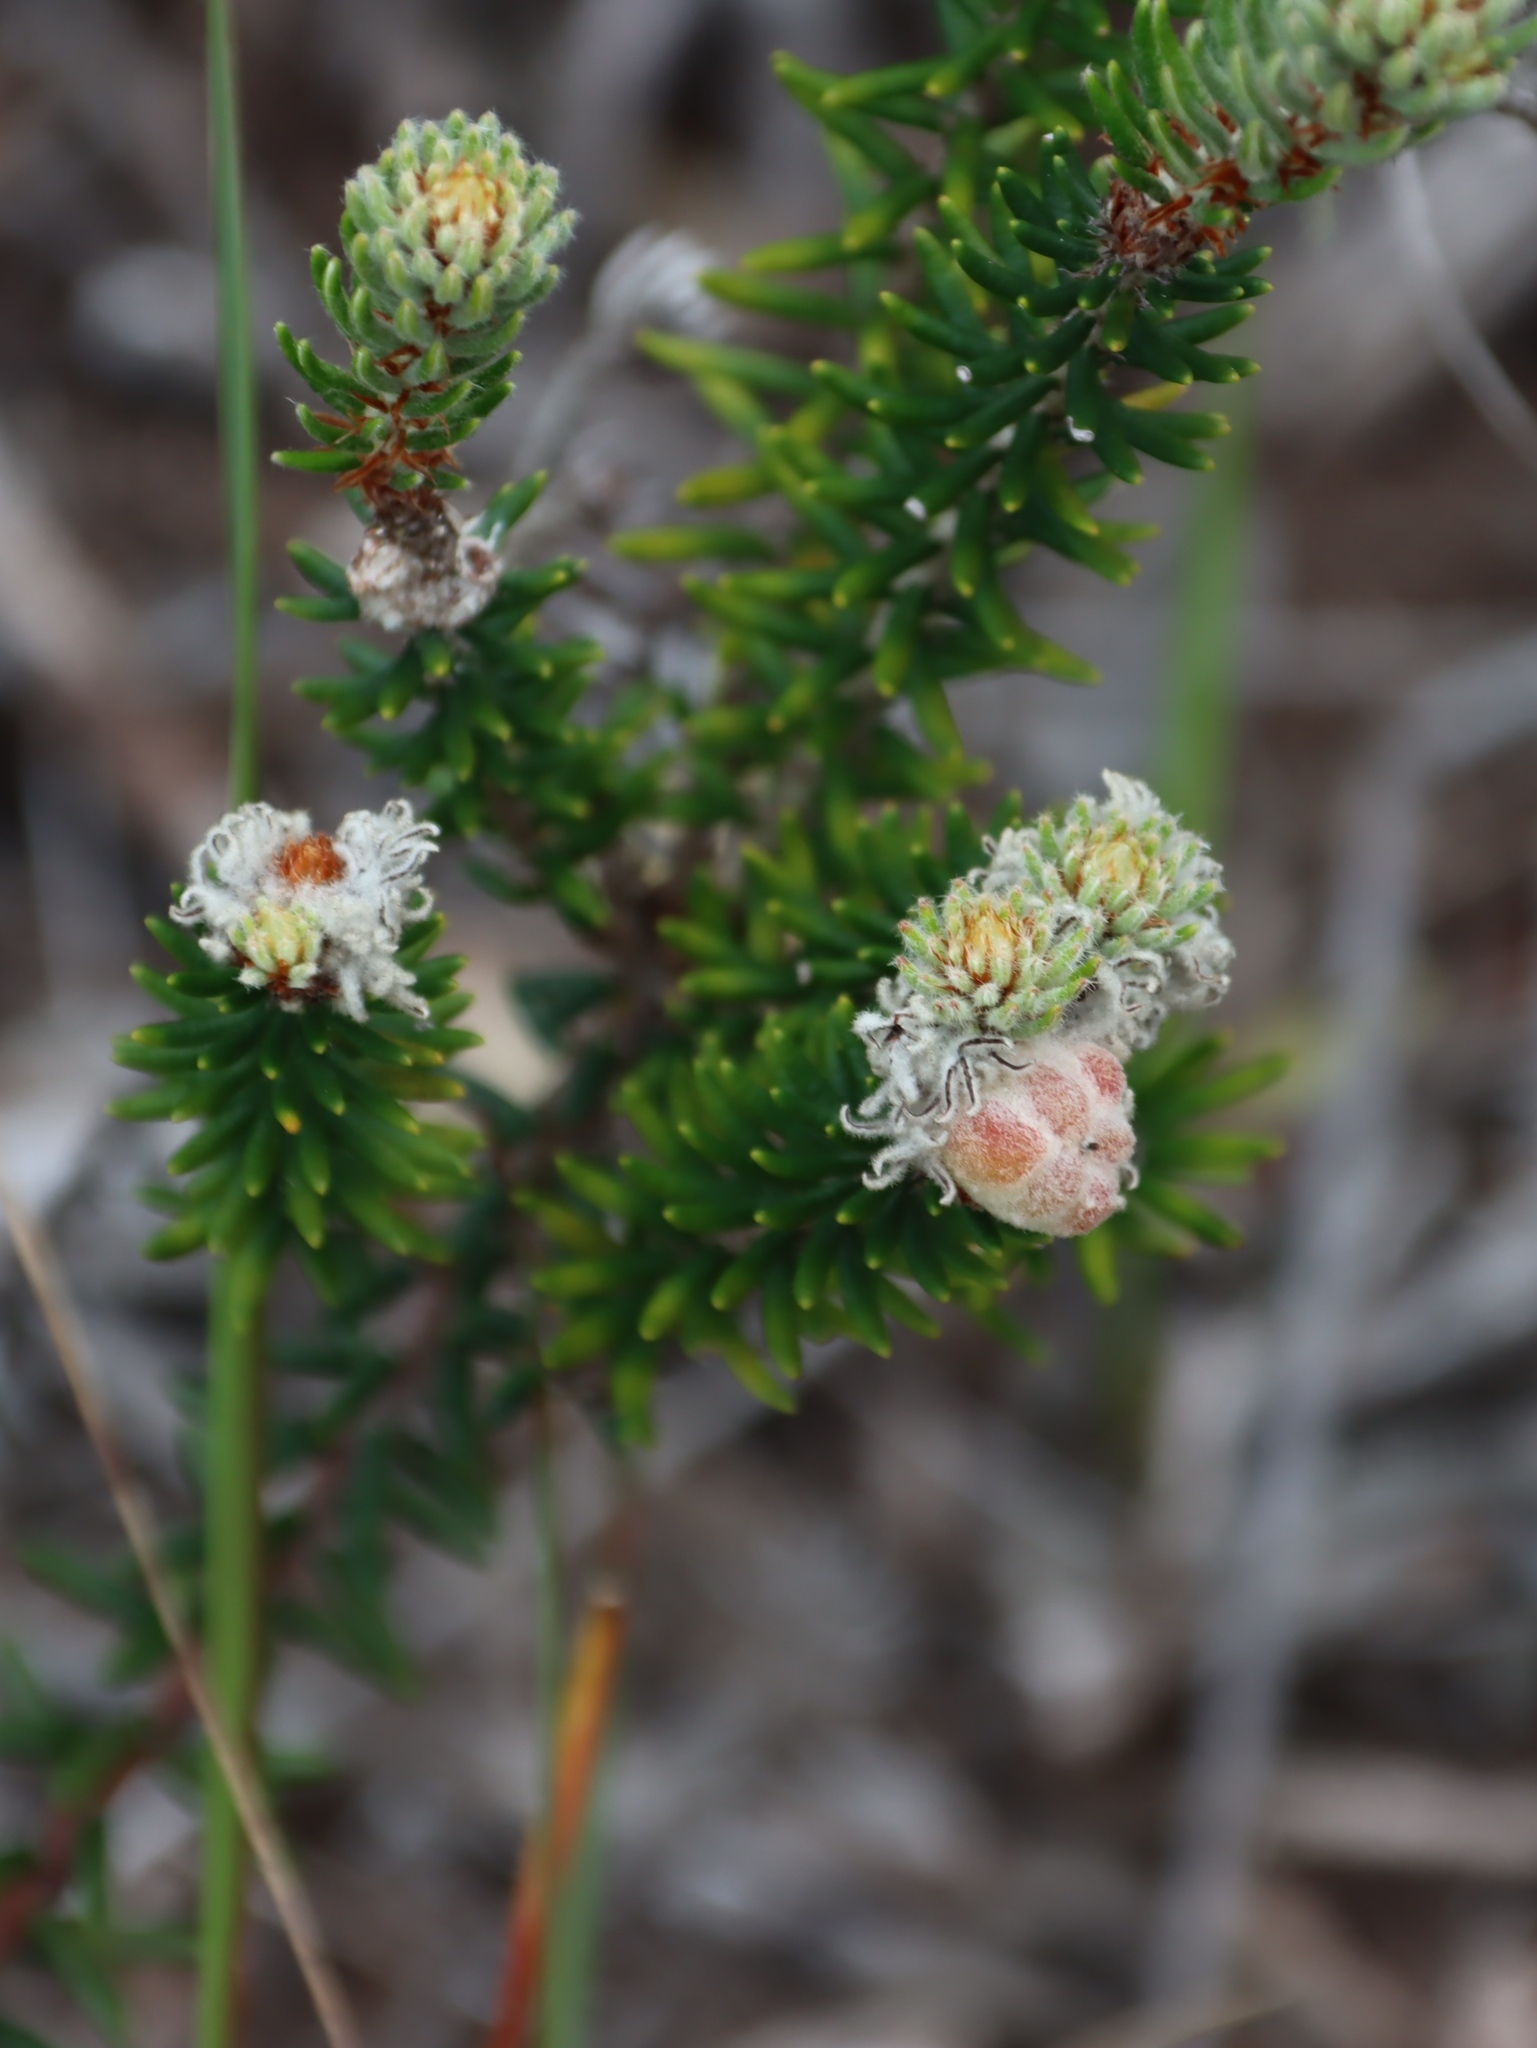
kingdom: Plantae
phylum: Tracheophyta
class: Magnoliopsida
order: Rosales
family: Rhamnaceae
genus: Trichocephalus
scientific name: Trichocephalus stipularis
